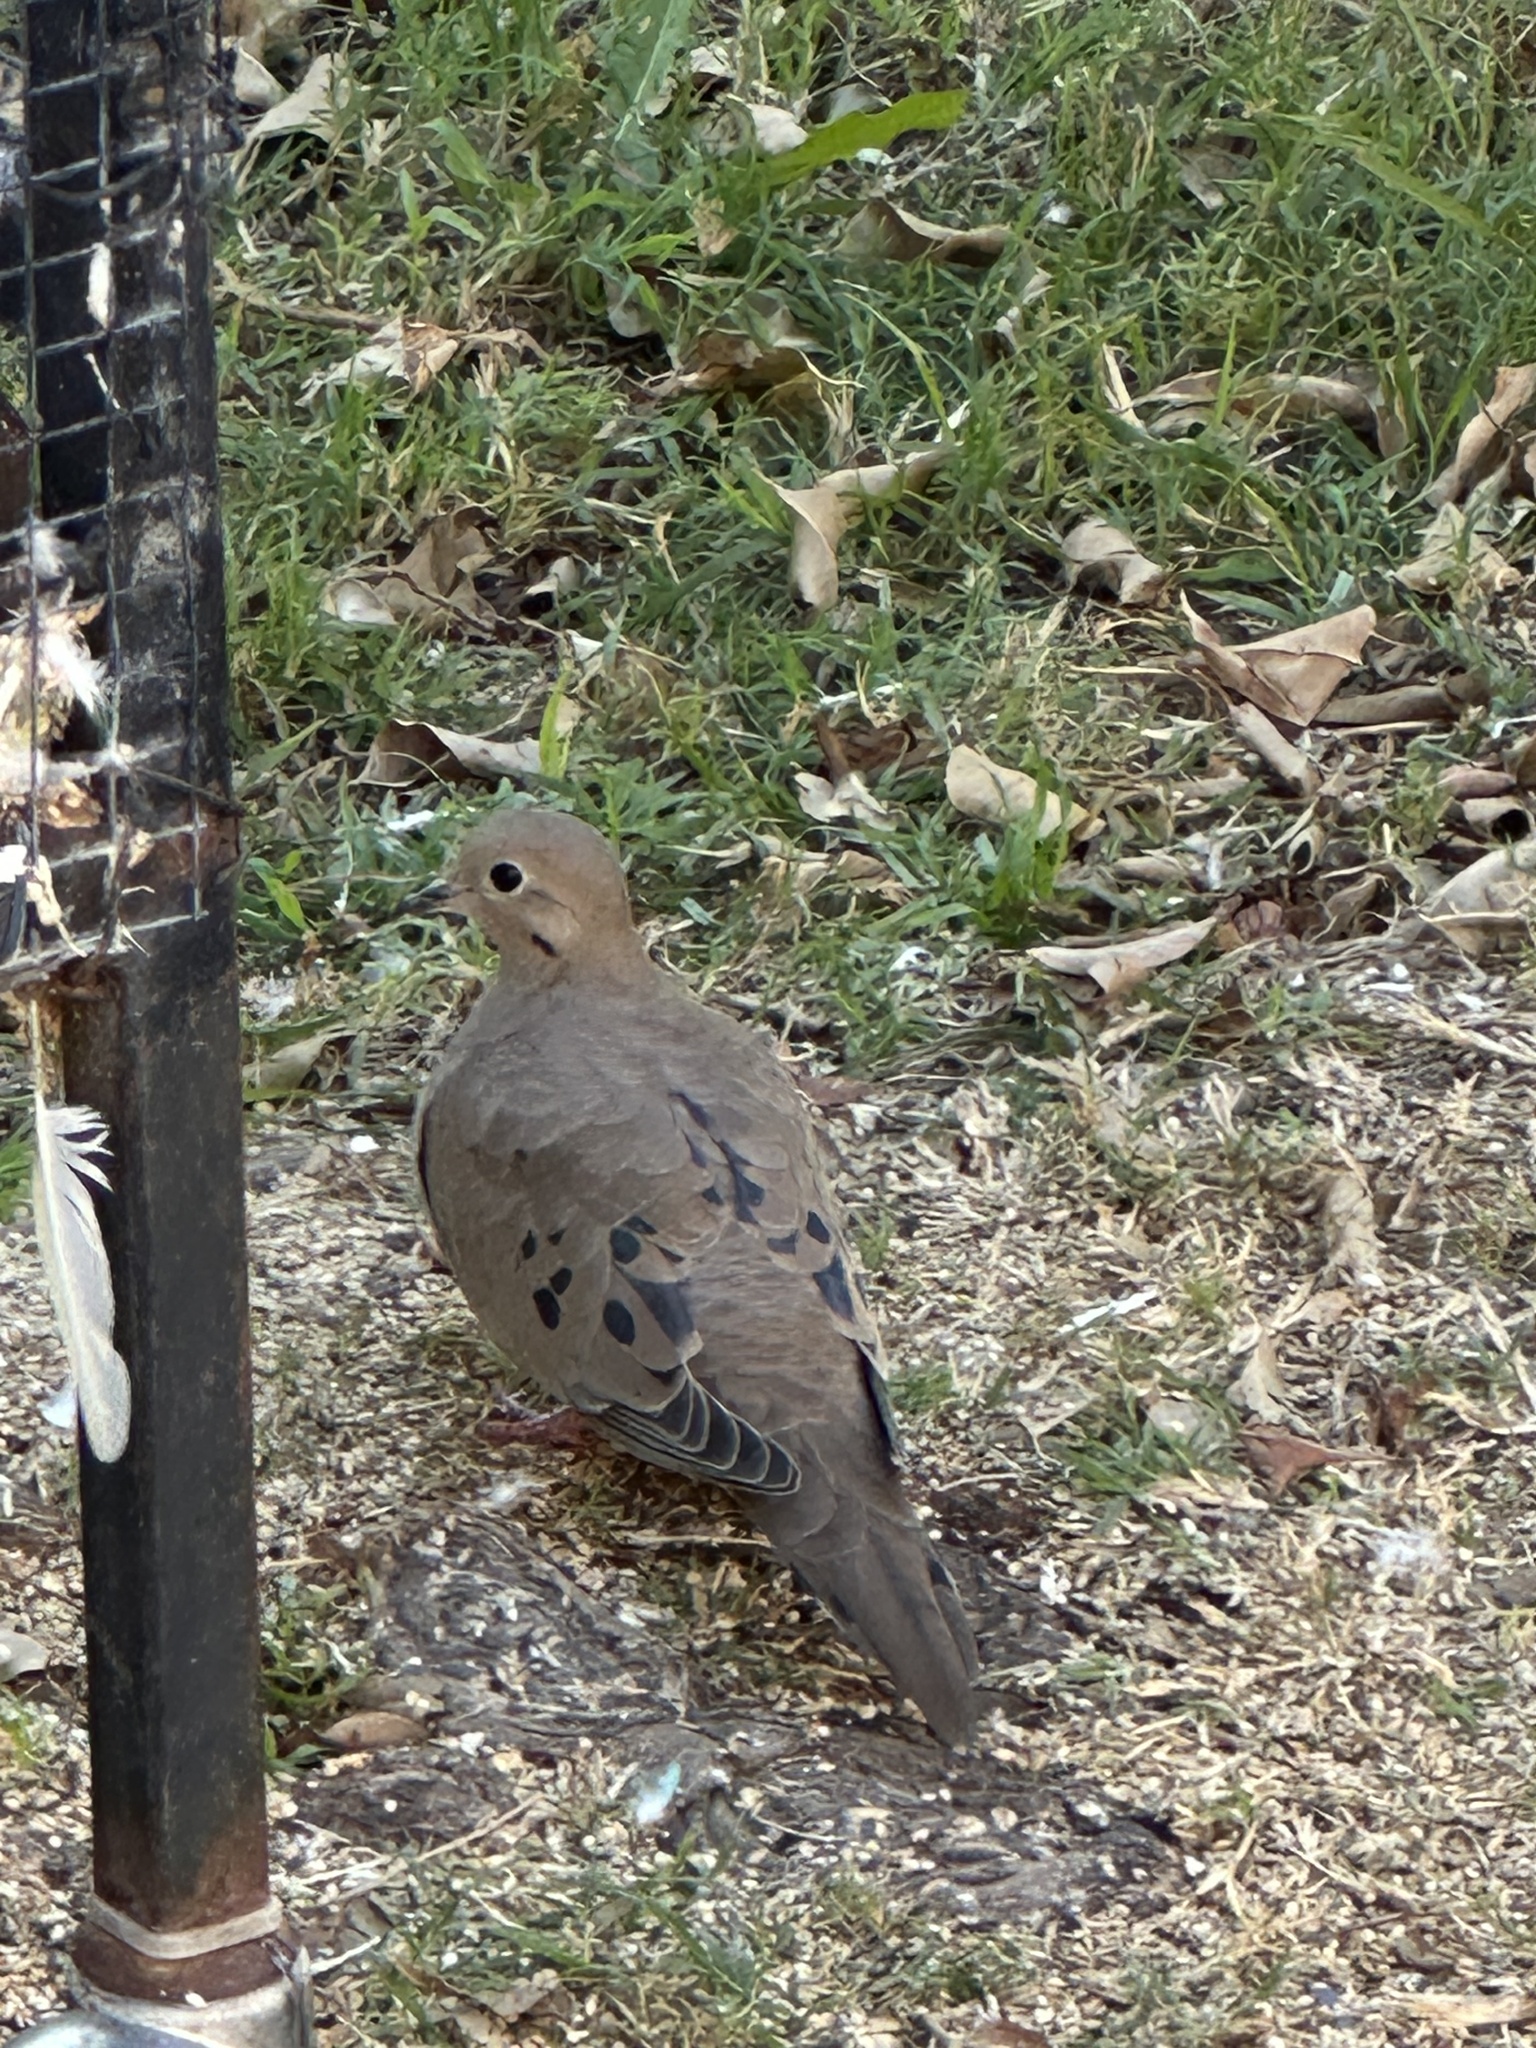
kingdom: Animalia
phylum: Chordata
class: Aves
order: Columbiformes
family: Columbidae
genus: Zenaida
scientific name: Zenaida macroura
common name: Mourning dove
